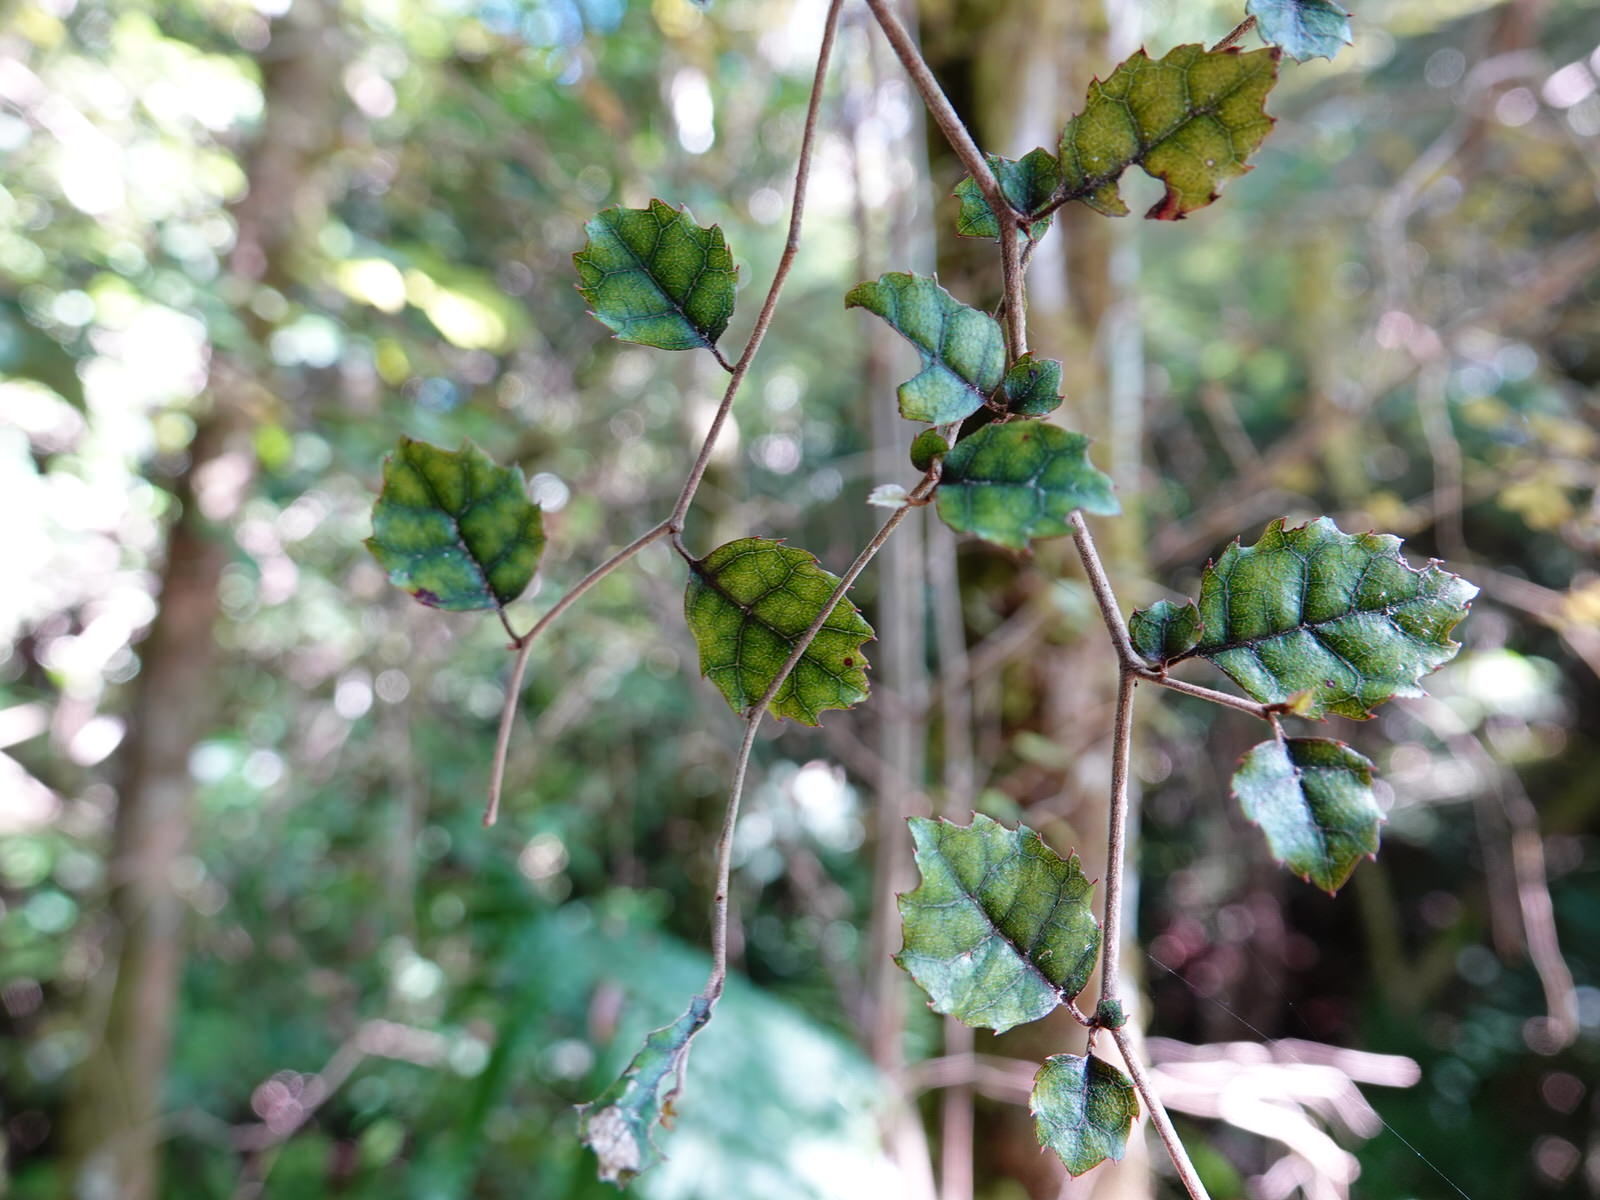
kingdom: Plantae
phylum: Tracheophyta
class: Magnoliopsida
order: Asterales
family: Rousseaceae
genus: Carpodetus
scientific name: Carpodetus serratus
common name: White mapau
